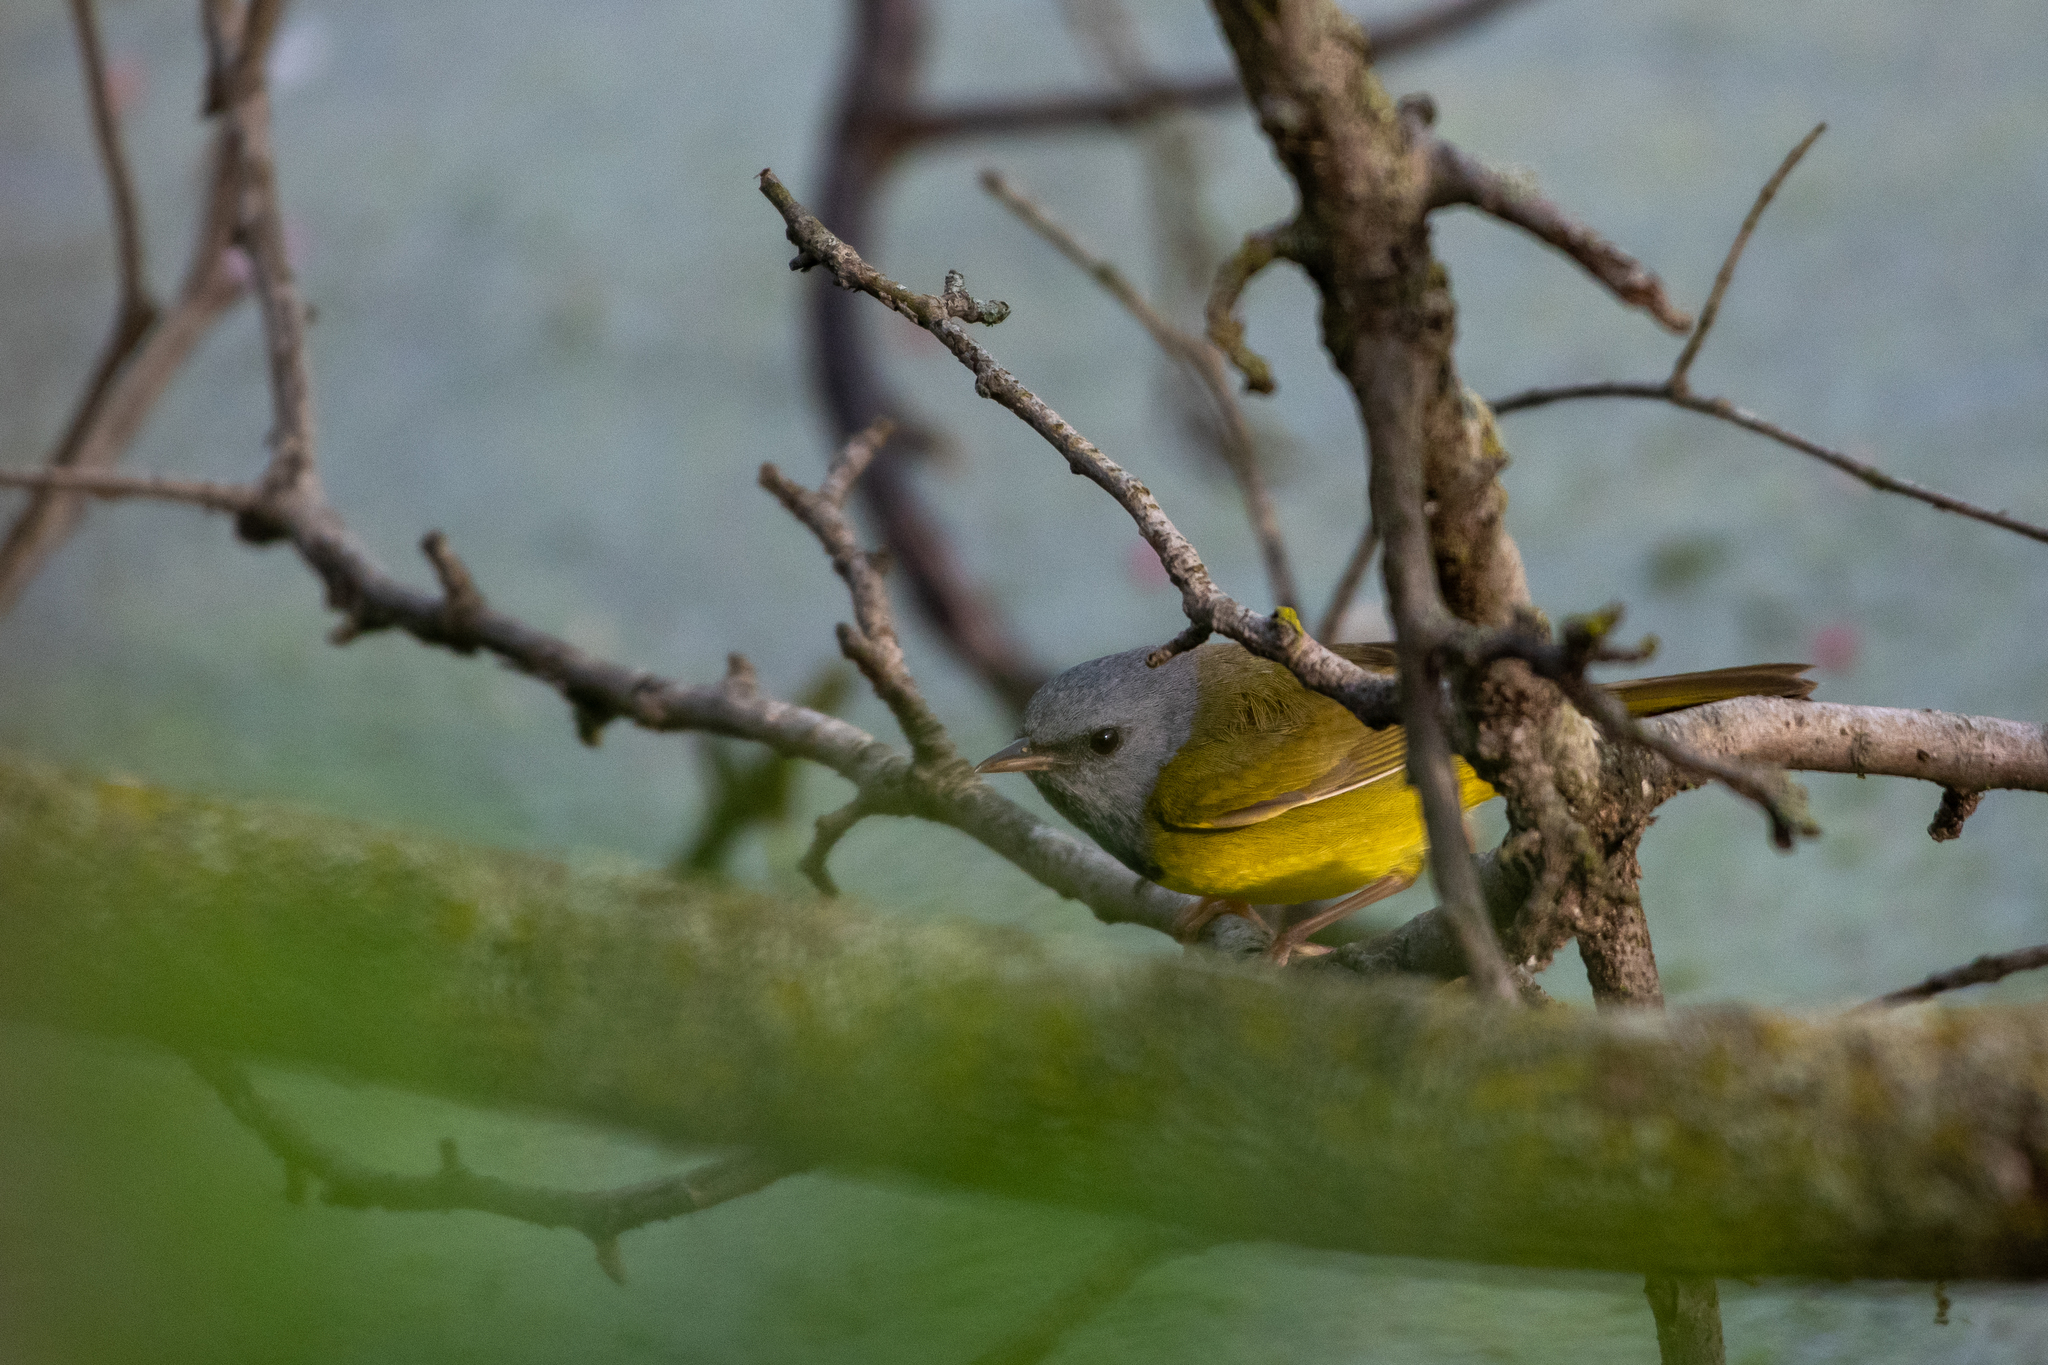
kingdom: Animalia
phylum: Chordata
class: Aves
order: Passeriformes
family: Parulidae
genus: Geothlypis
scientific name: Geothlypis philadelphia
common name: Mourning warbler
